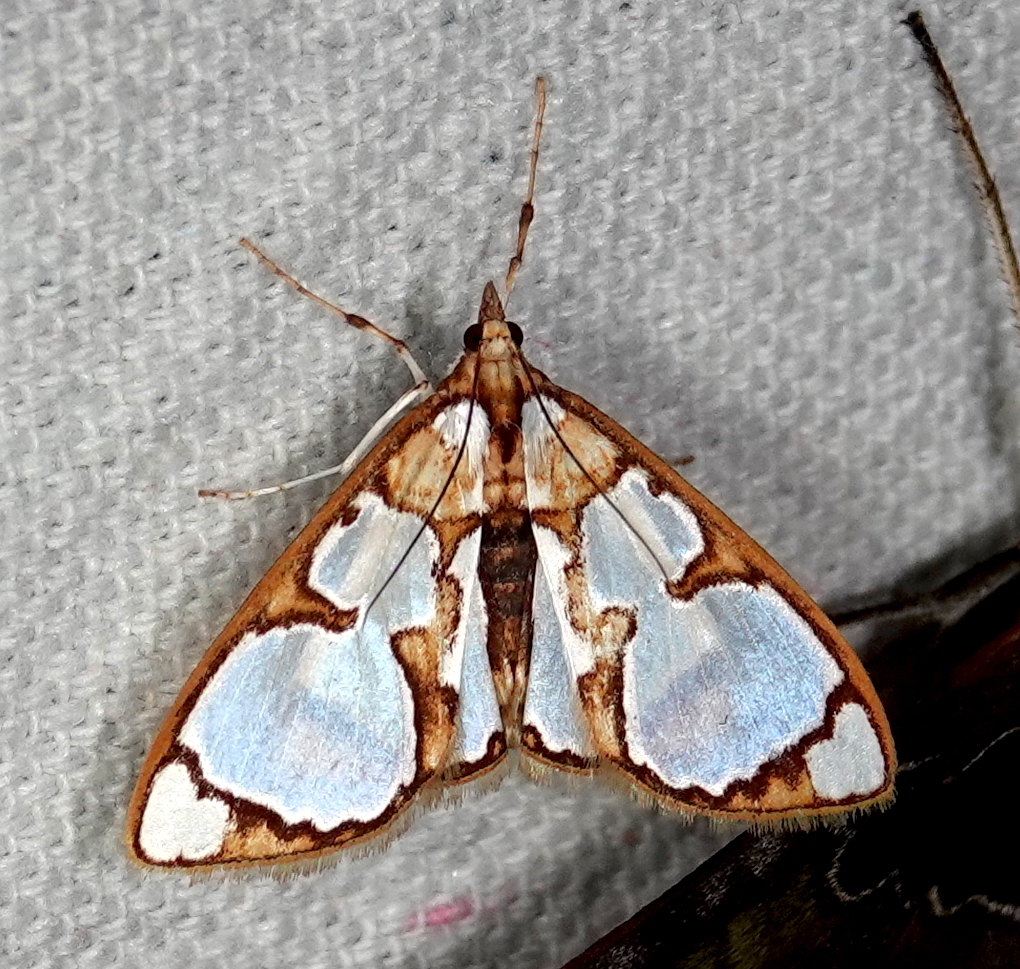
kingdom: Animalia
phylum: Arthropoda
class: Insecta
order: Lepidoptera
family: Crambidae
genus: Glyphodes
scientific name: Glyphodes grandisalis
